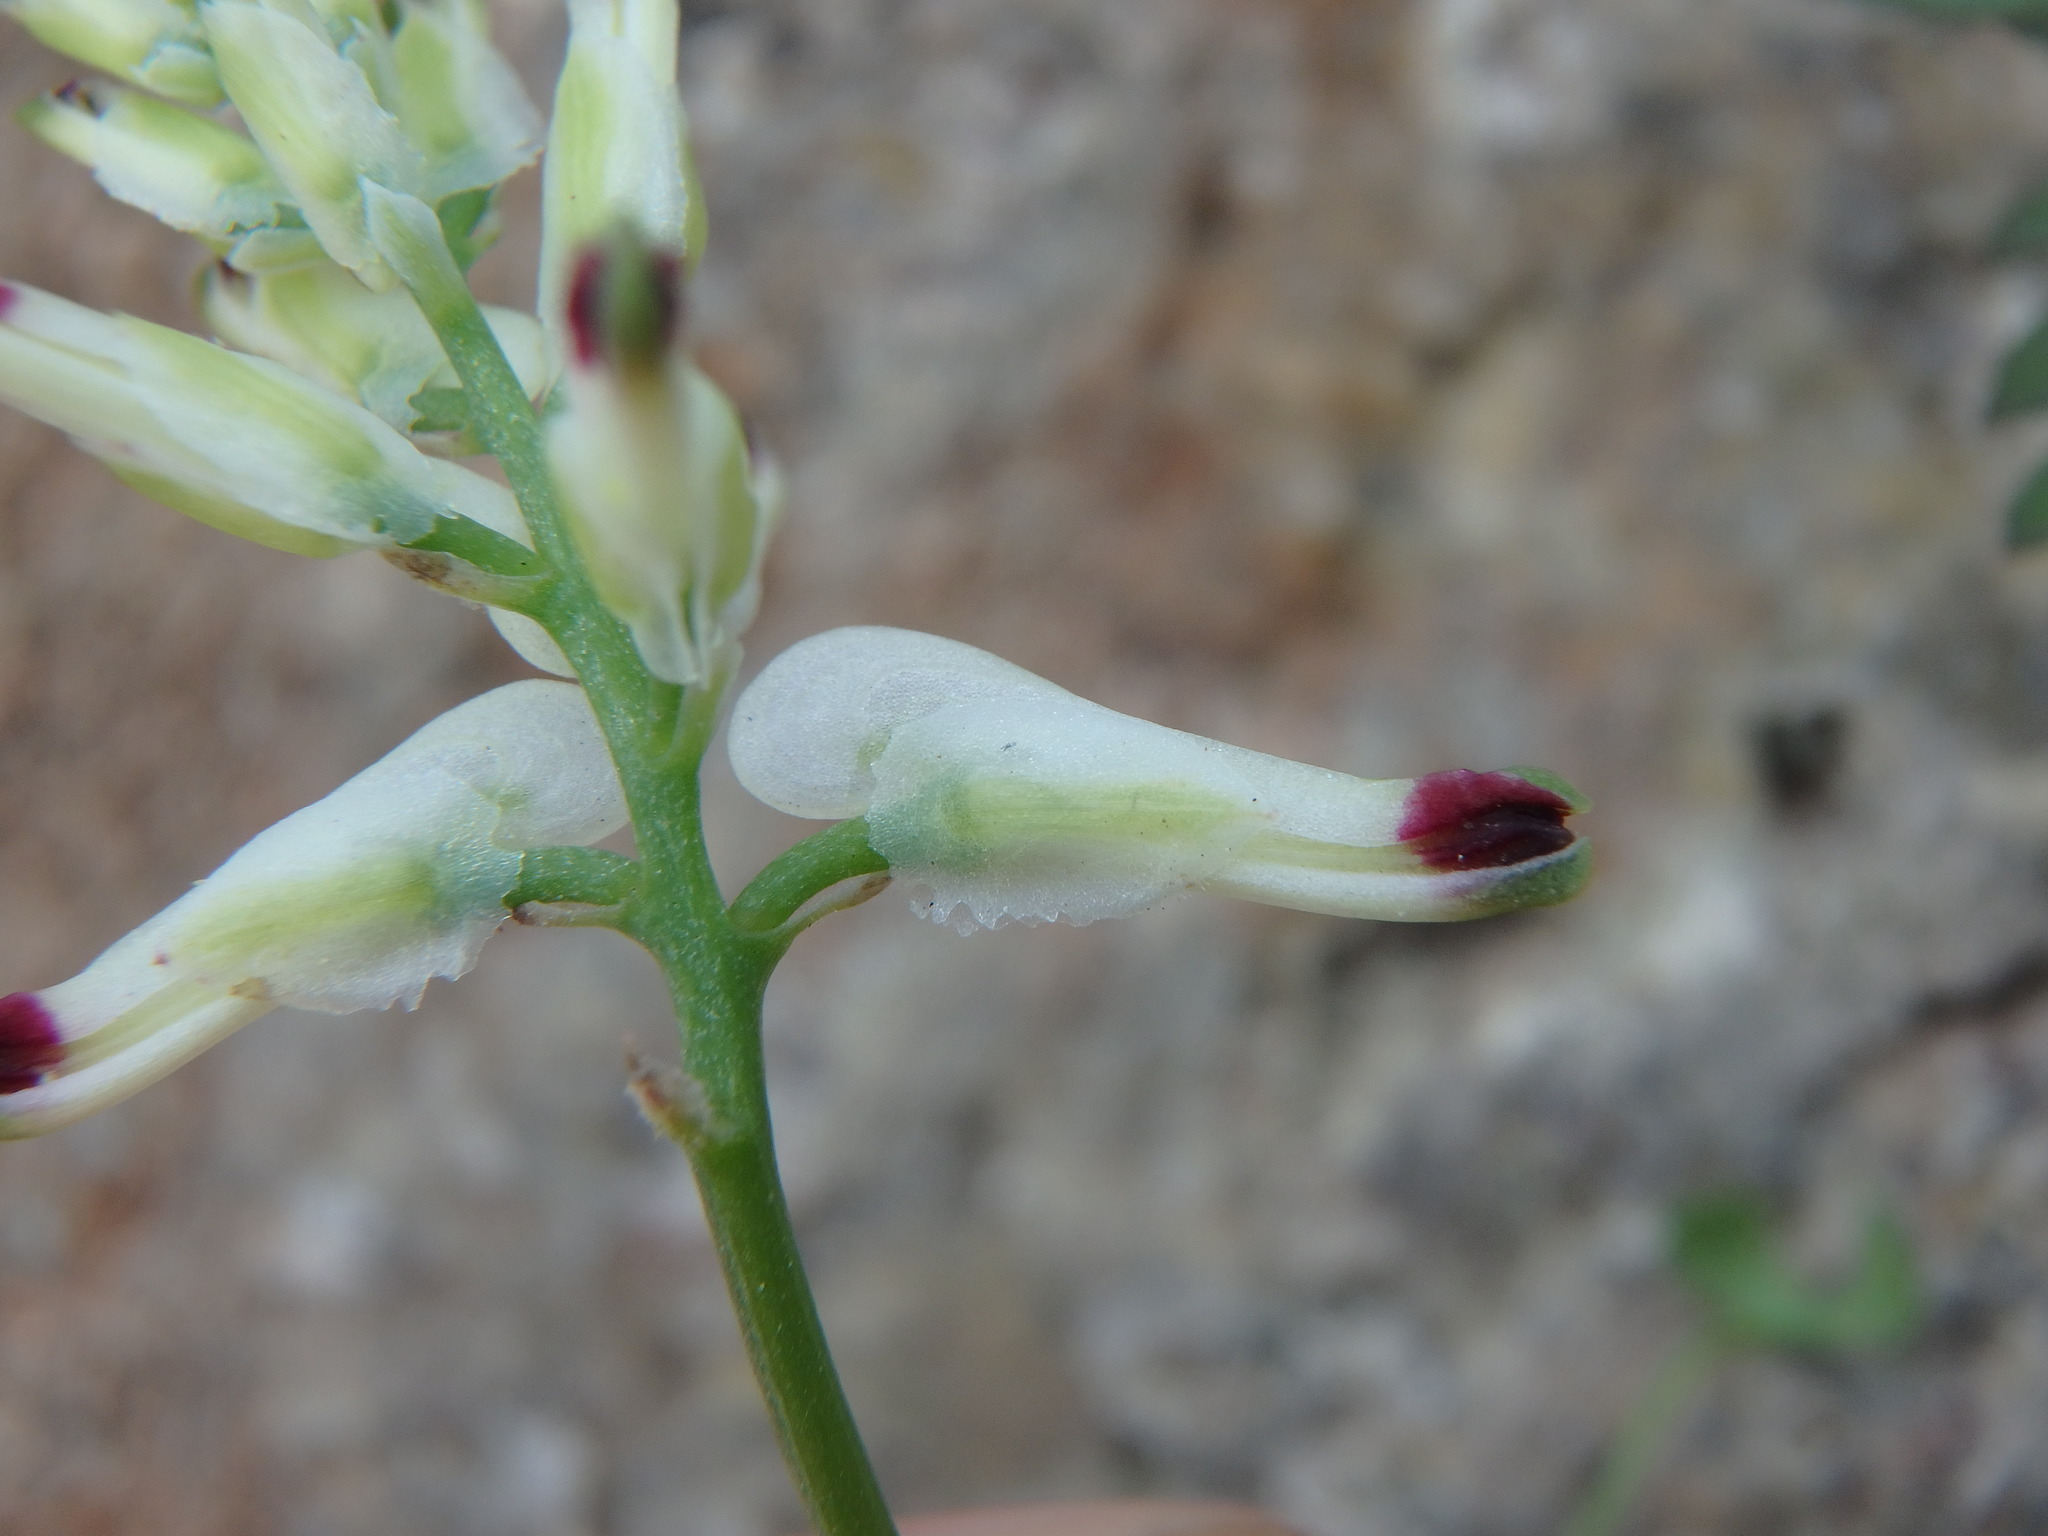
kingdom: Plantae
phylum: Tracheophyta
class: Magnoliopsida
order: Ranunculales
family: Papaveraceae
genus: Fumaria
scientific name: Fumaria capreolata
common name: White ramping-fumitory
